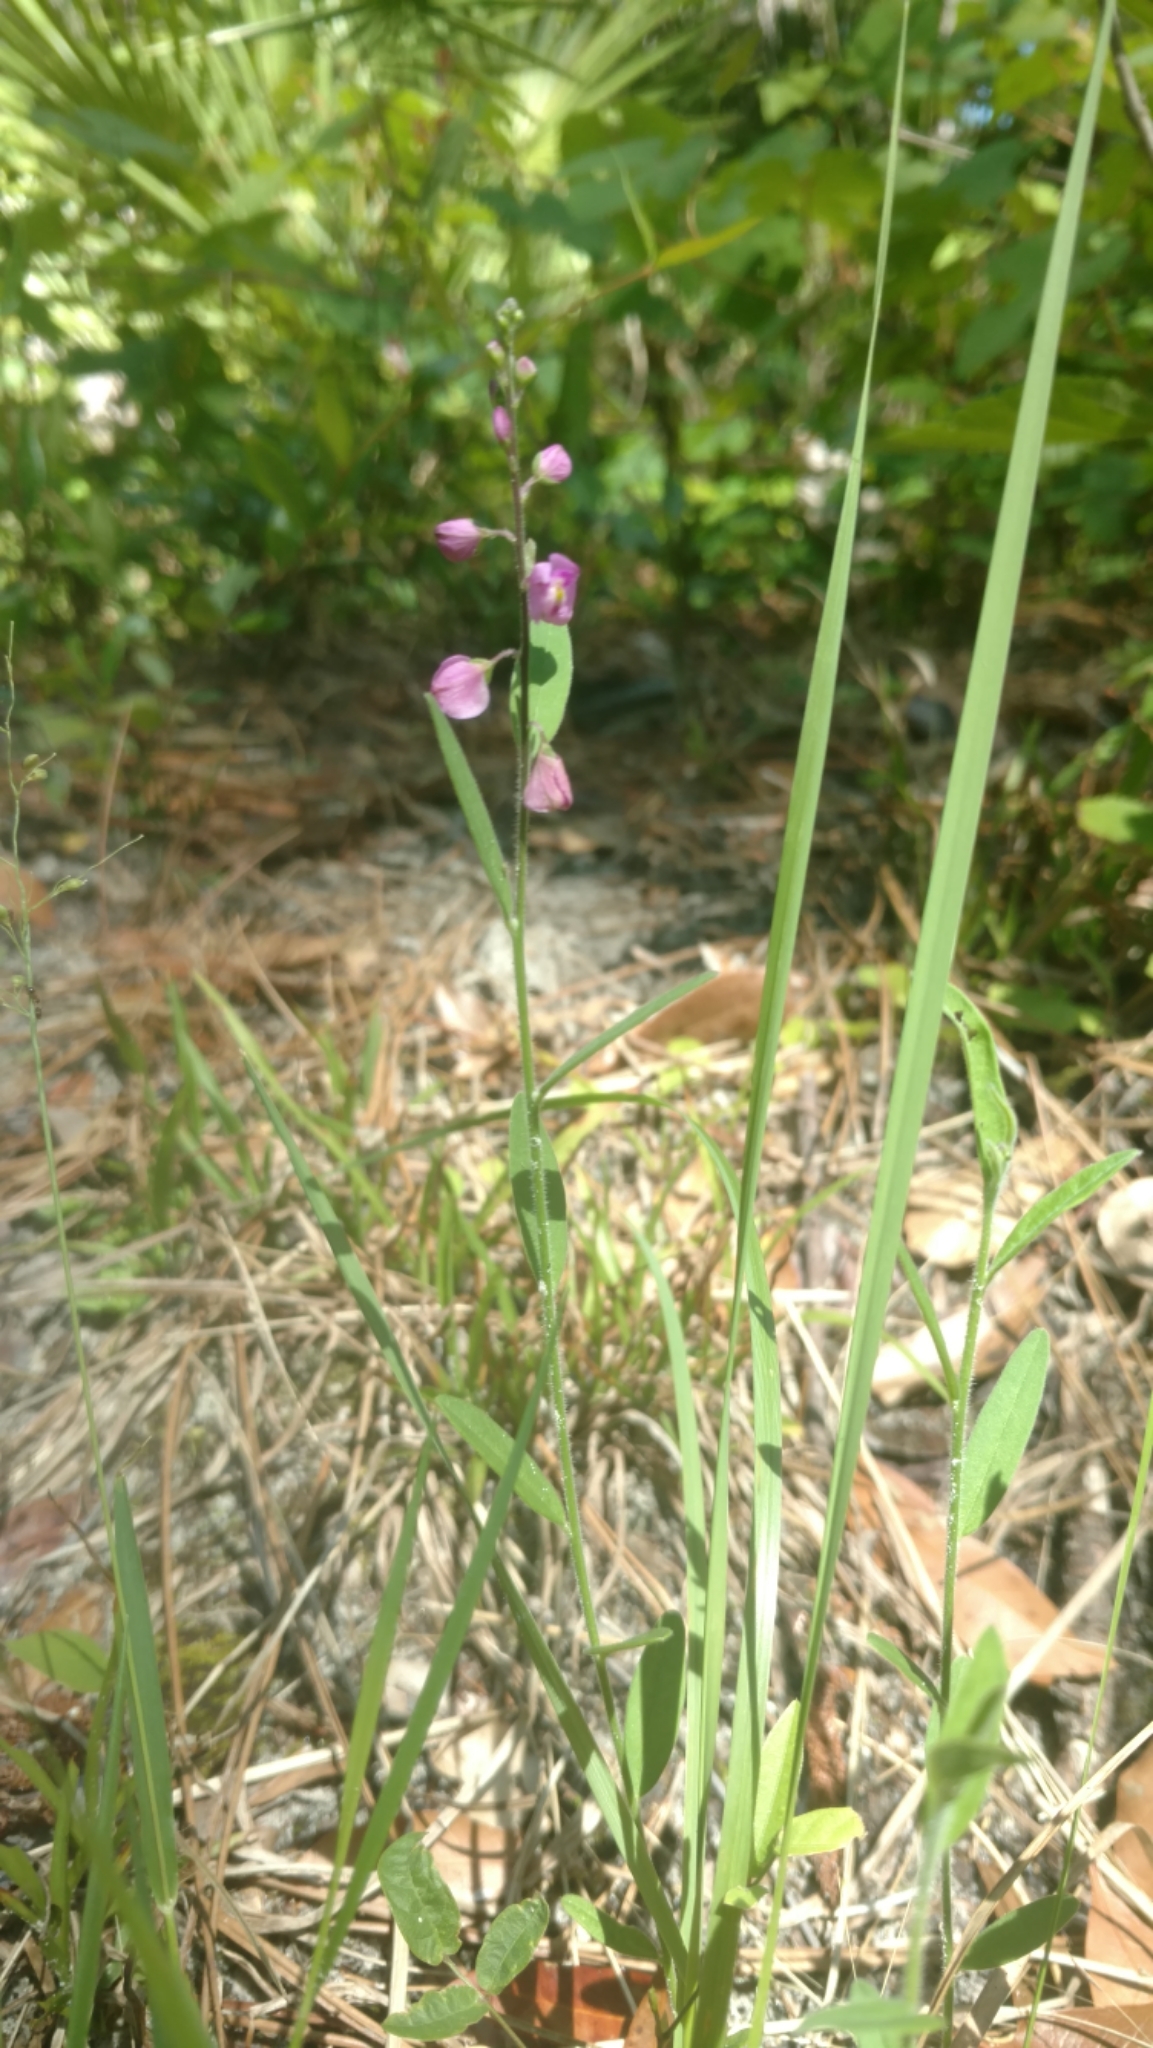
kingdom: Plantae
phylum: Tracheophyta
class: Magnoliopsida
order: Fabales
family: Polygalaceae
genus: Asemeia
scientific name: Asemeia grandiflora
